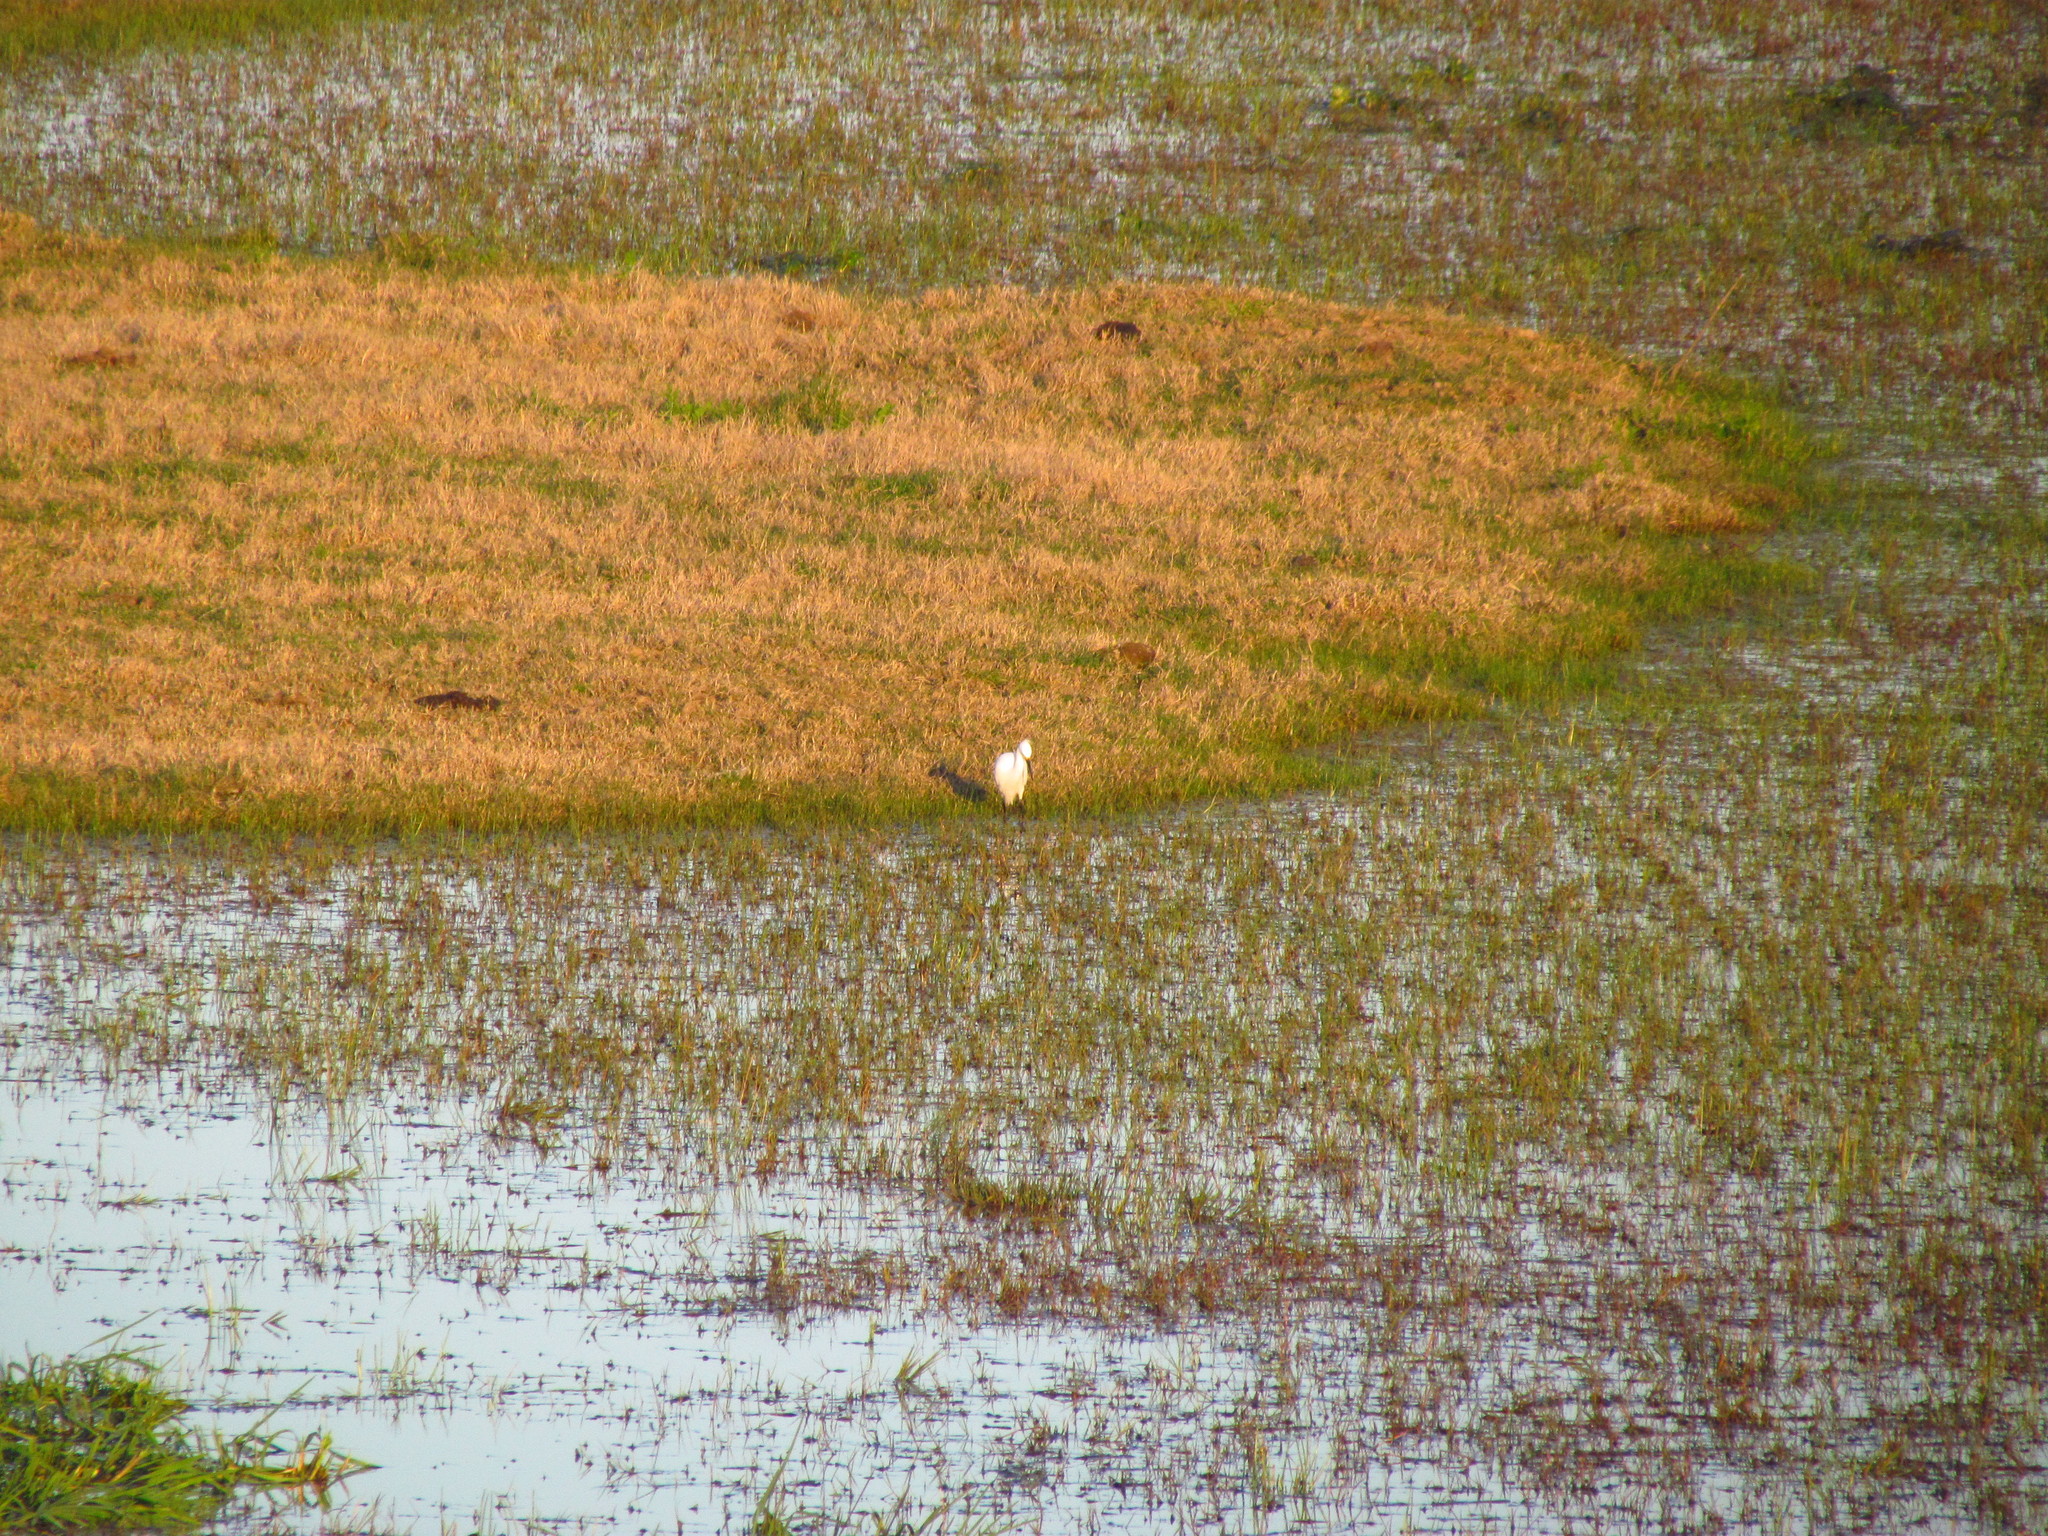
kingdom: Animalia
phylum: Chordata
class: Aves
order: Pelecaniformes
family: Ardeidae
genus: Egretta
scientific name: Egretta thula
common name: Snowy egret
